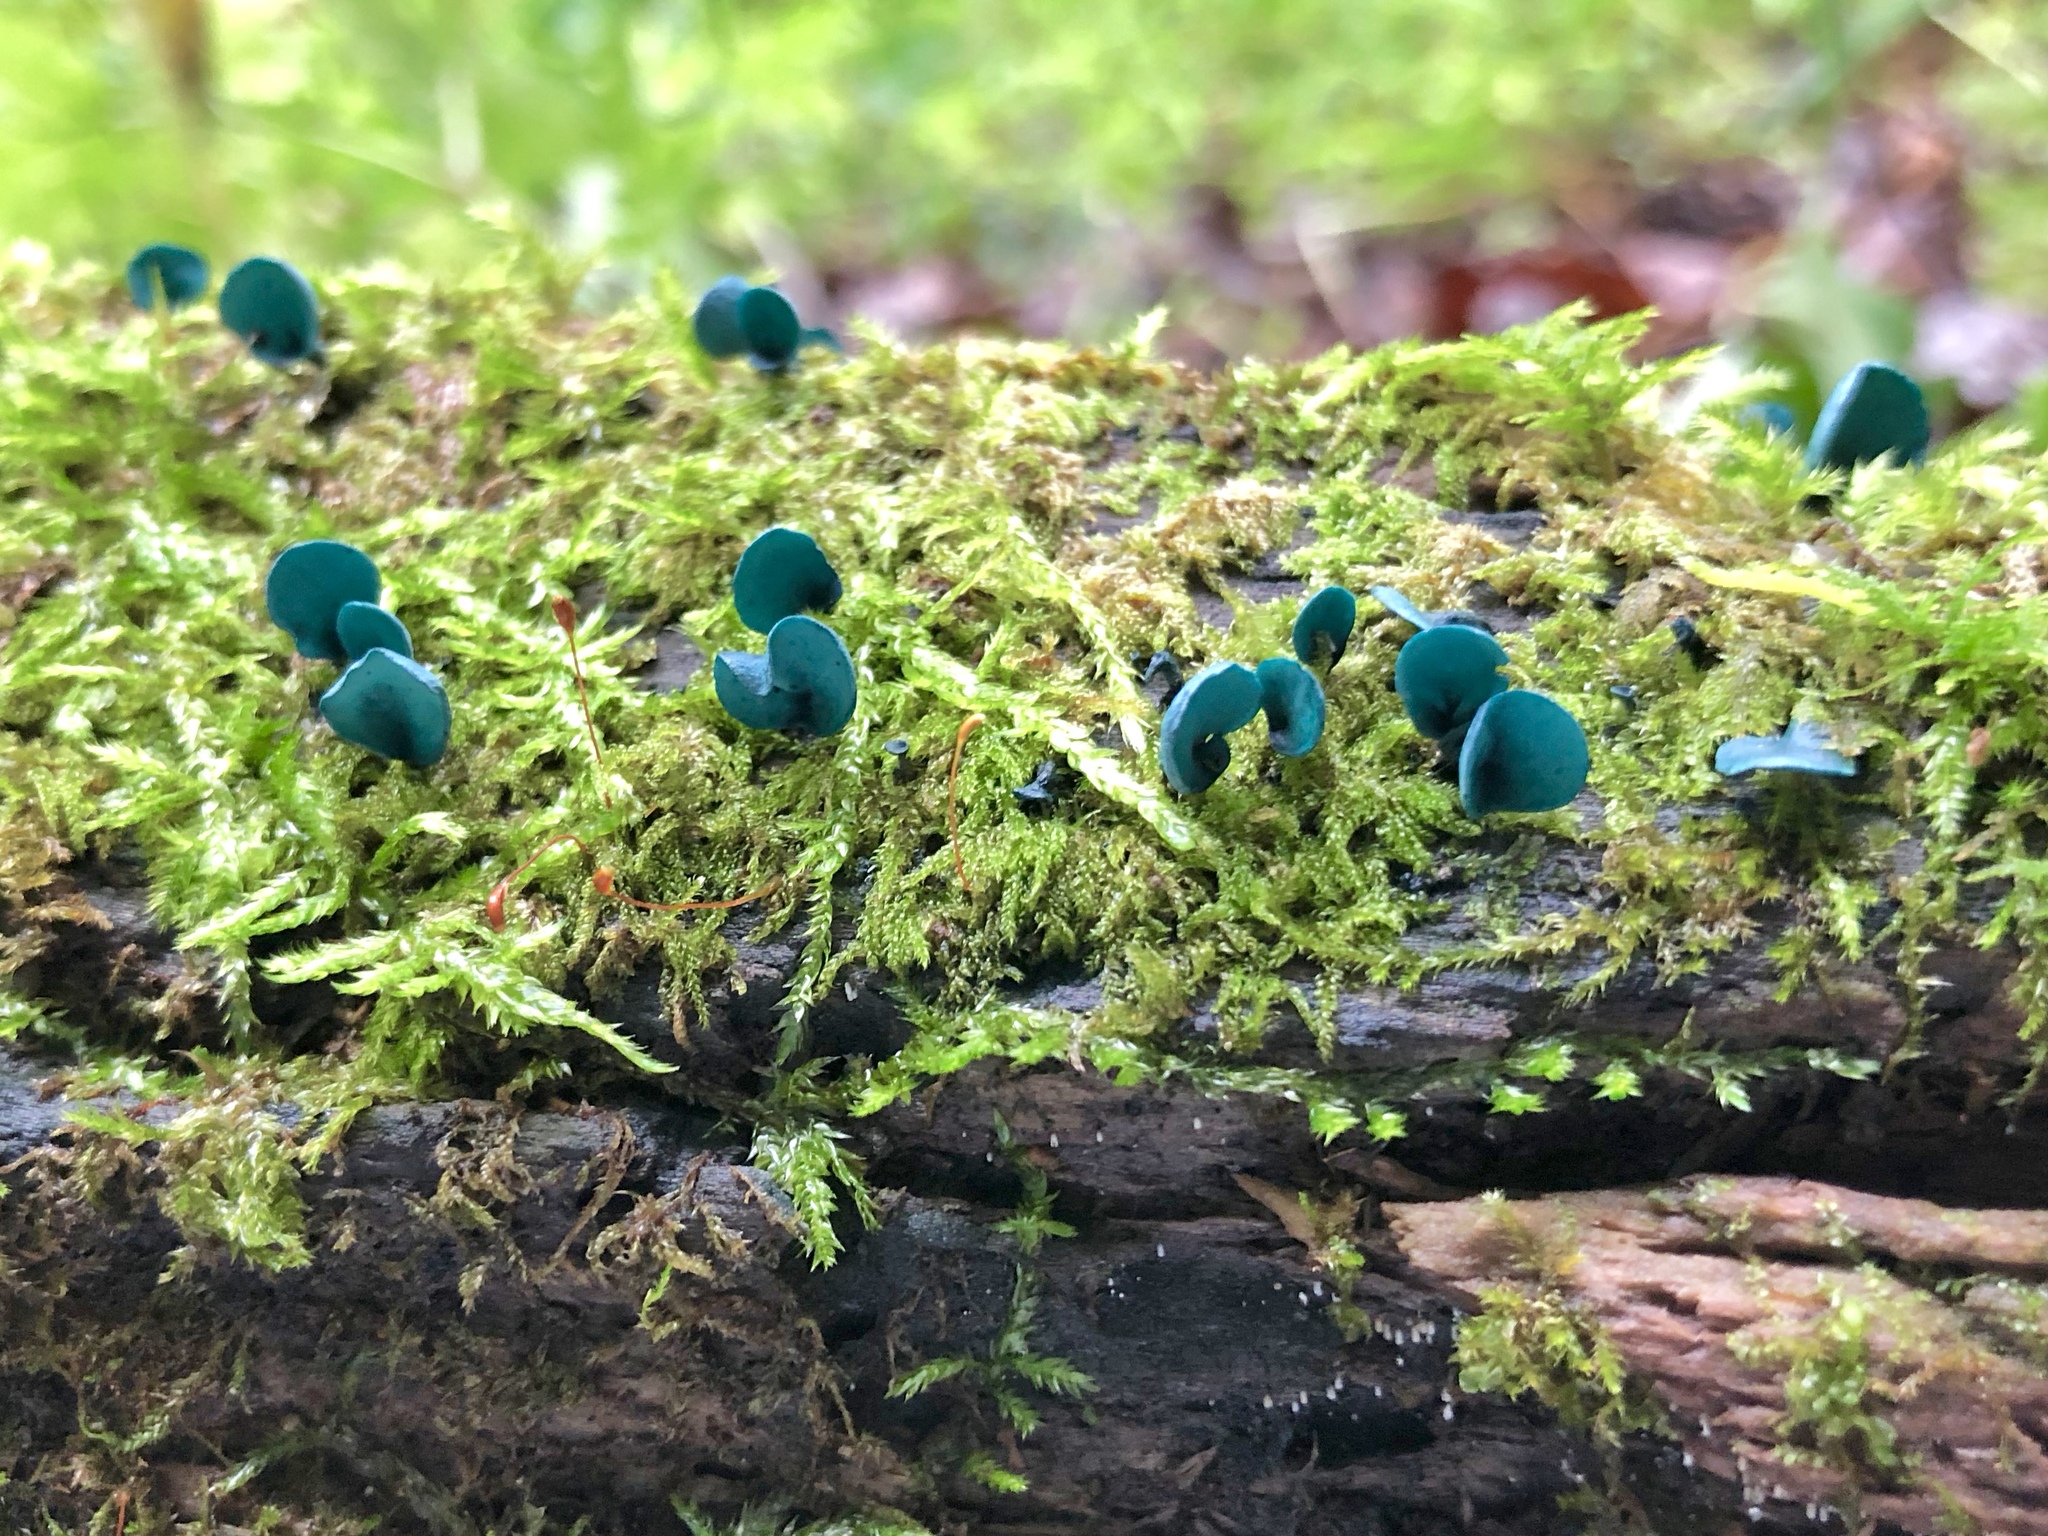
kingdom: Fungi
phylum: Ascomycota
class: Leotiomycetes
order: Helotiales
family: Chlorociboriaceae
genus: Chlorociboria
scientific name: Chlorociboria aeruginascens
